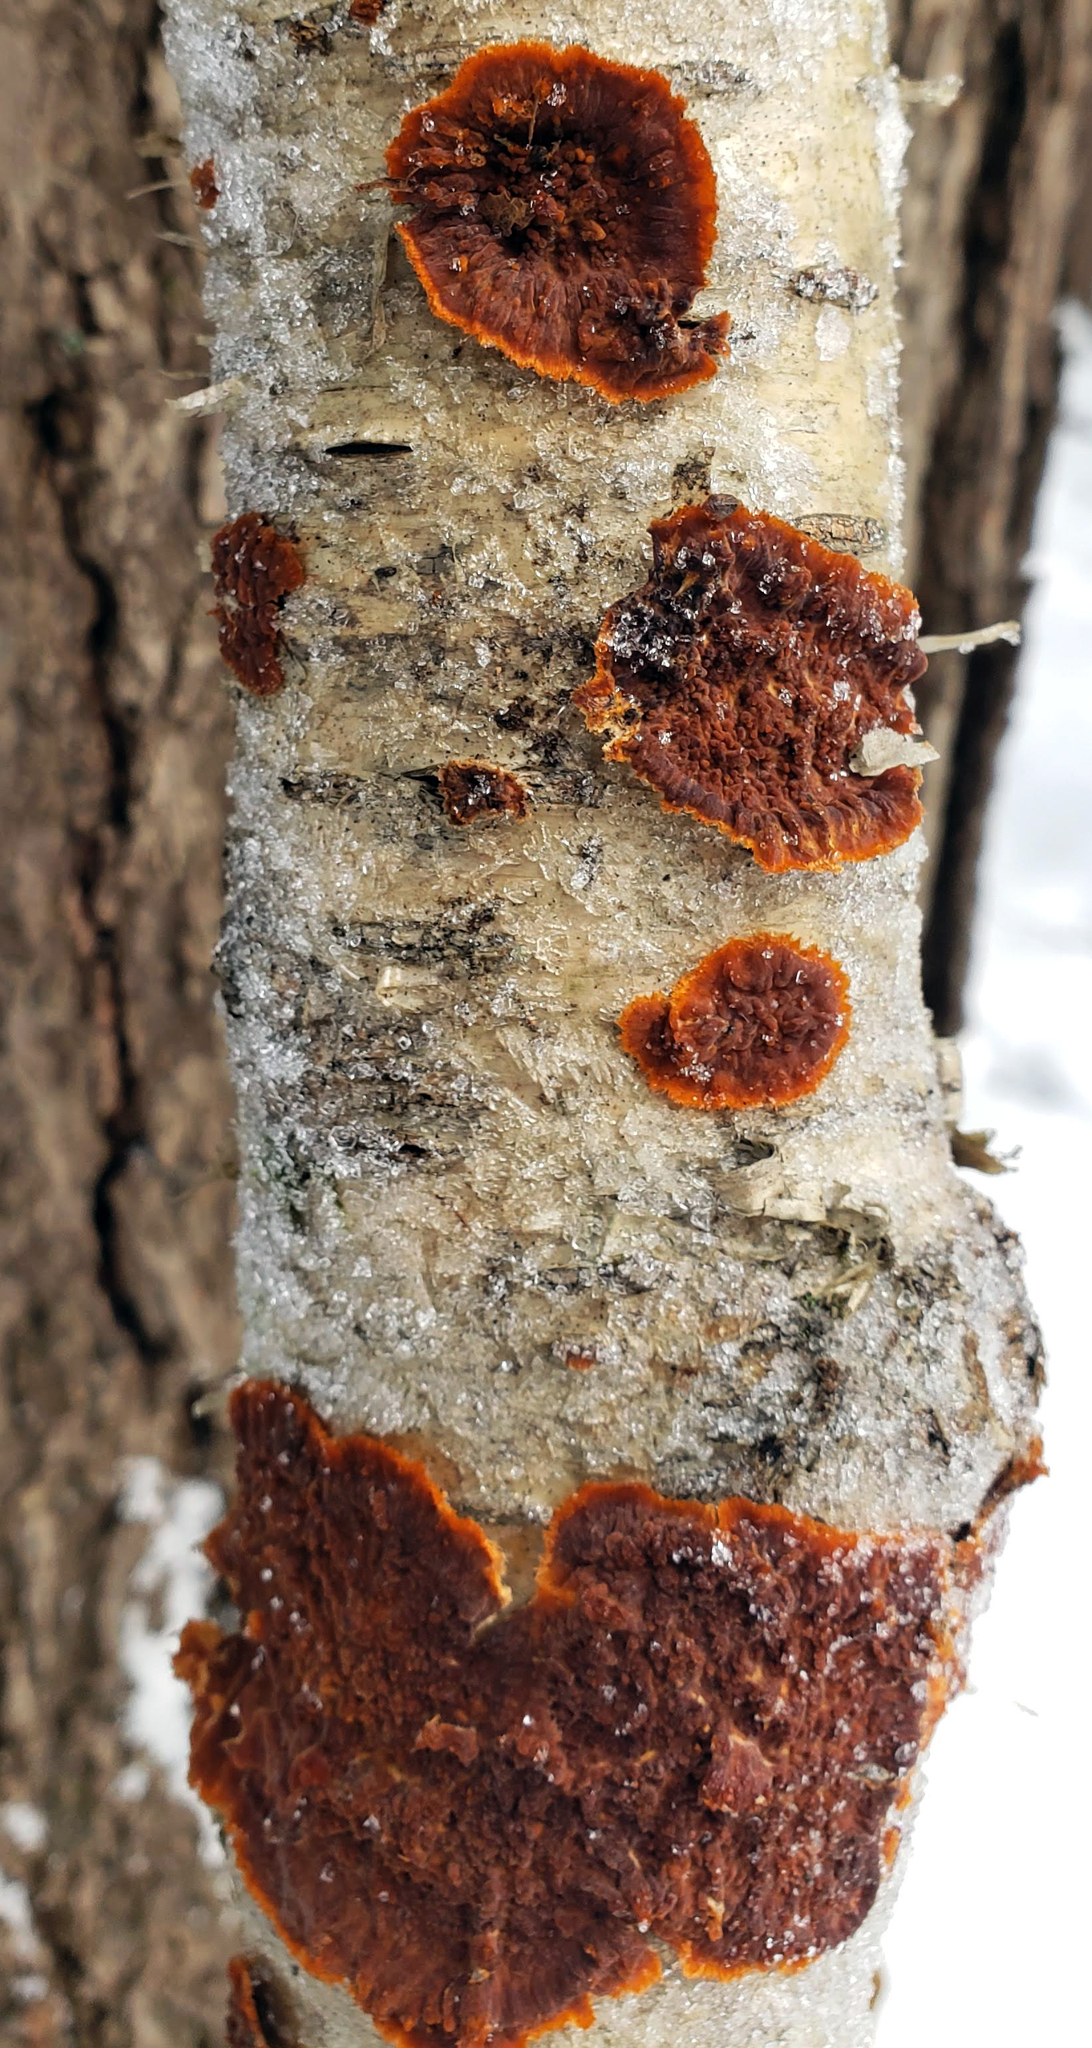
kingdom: Fungi
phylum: Basidiomycota
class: Agaricomycetes
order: Polyporales
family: Meruliaceae
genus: Phlebia
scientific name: Phlebia radiata
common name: Wrinkled crust
